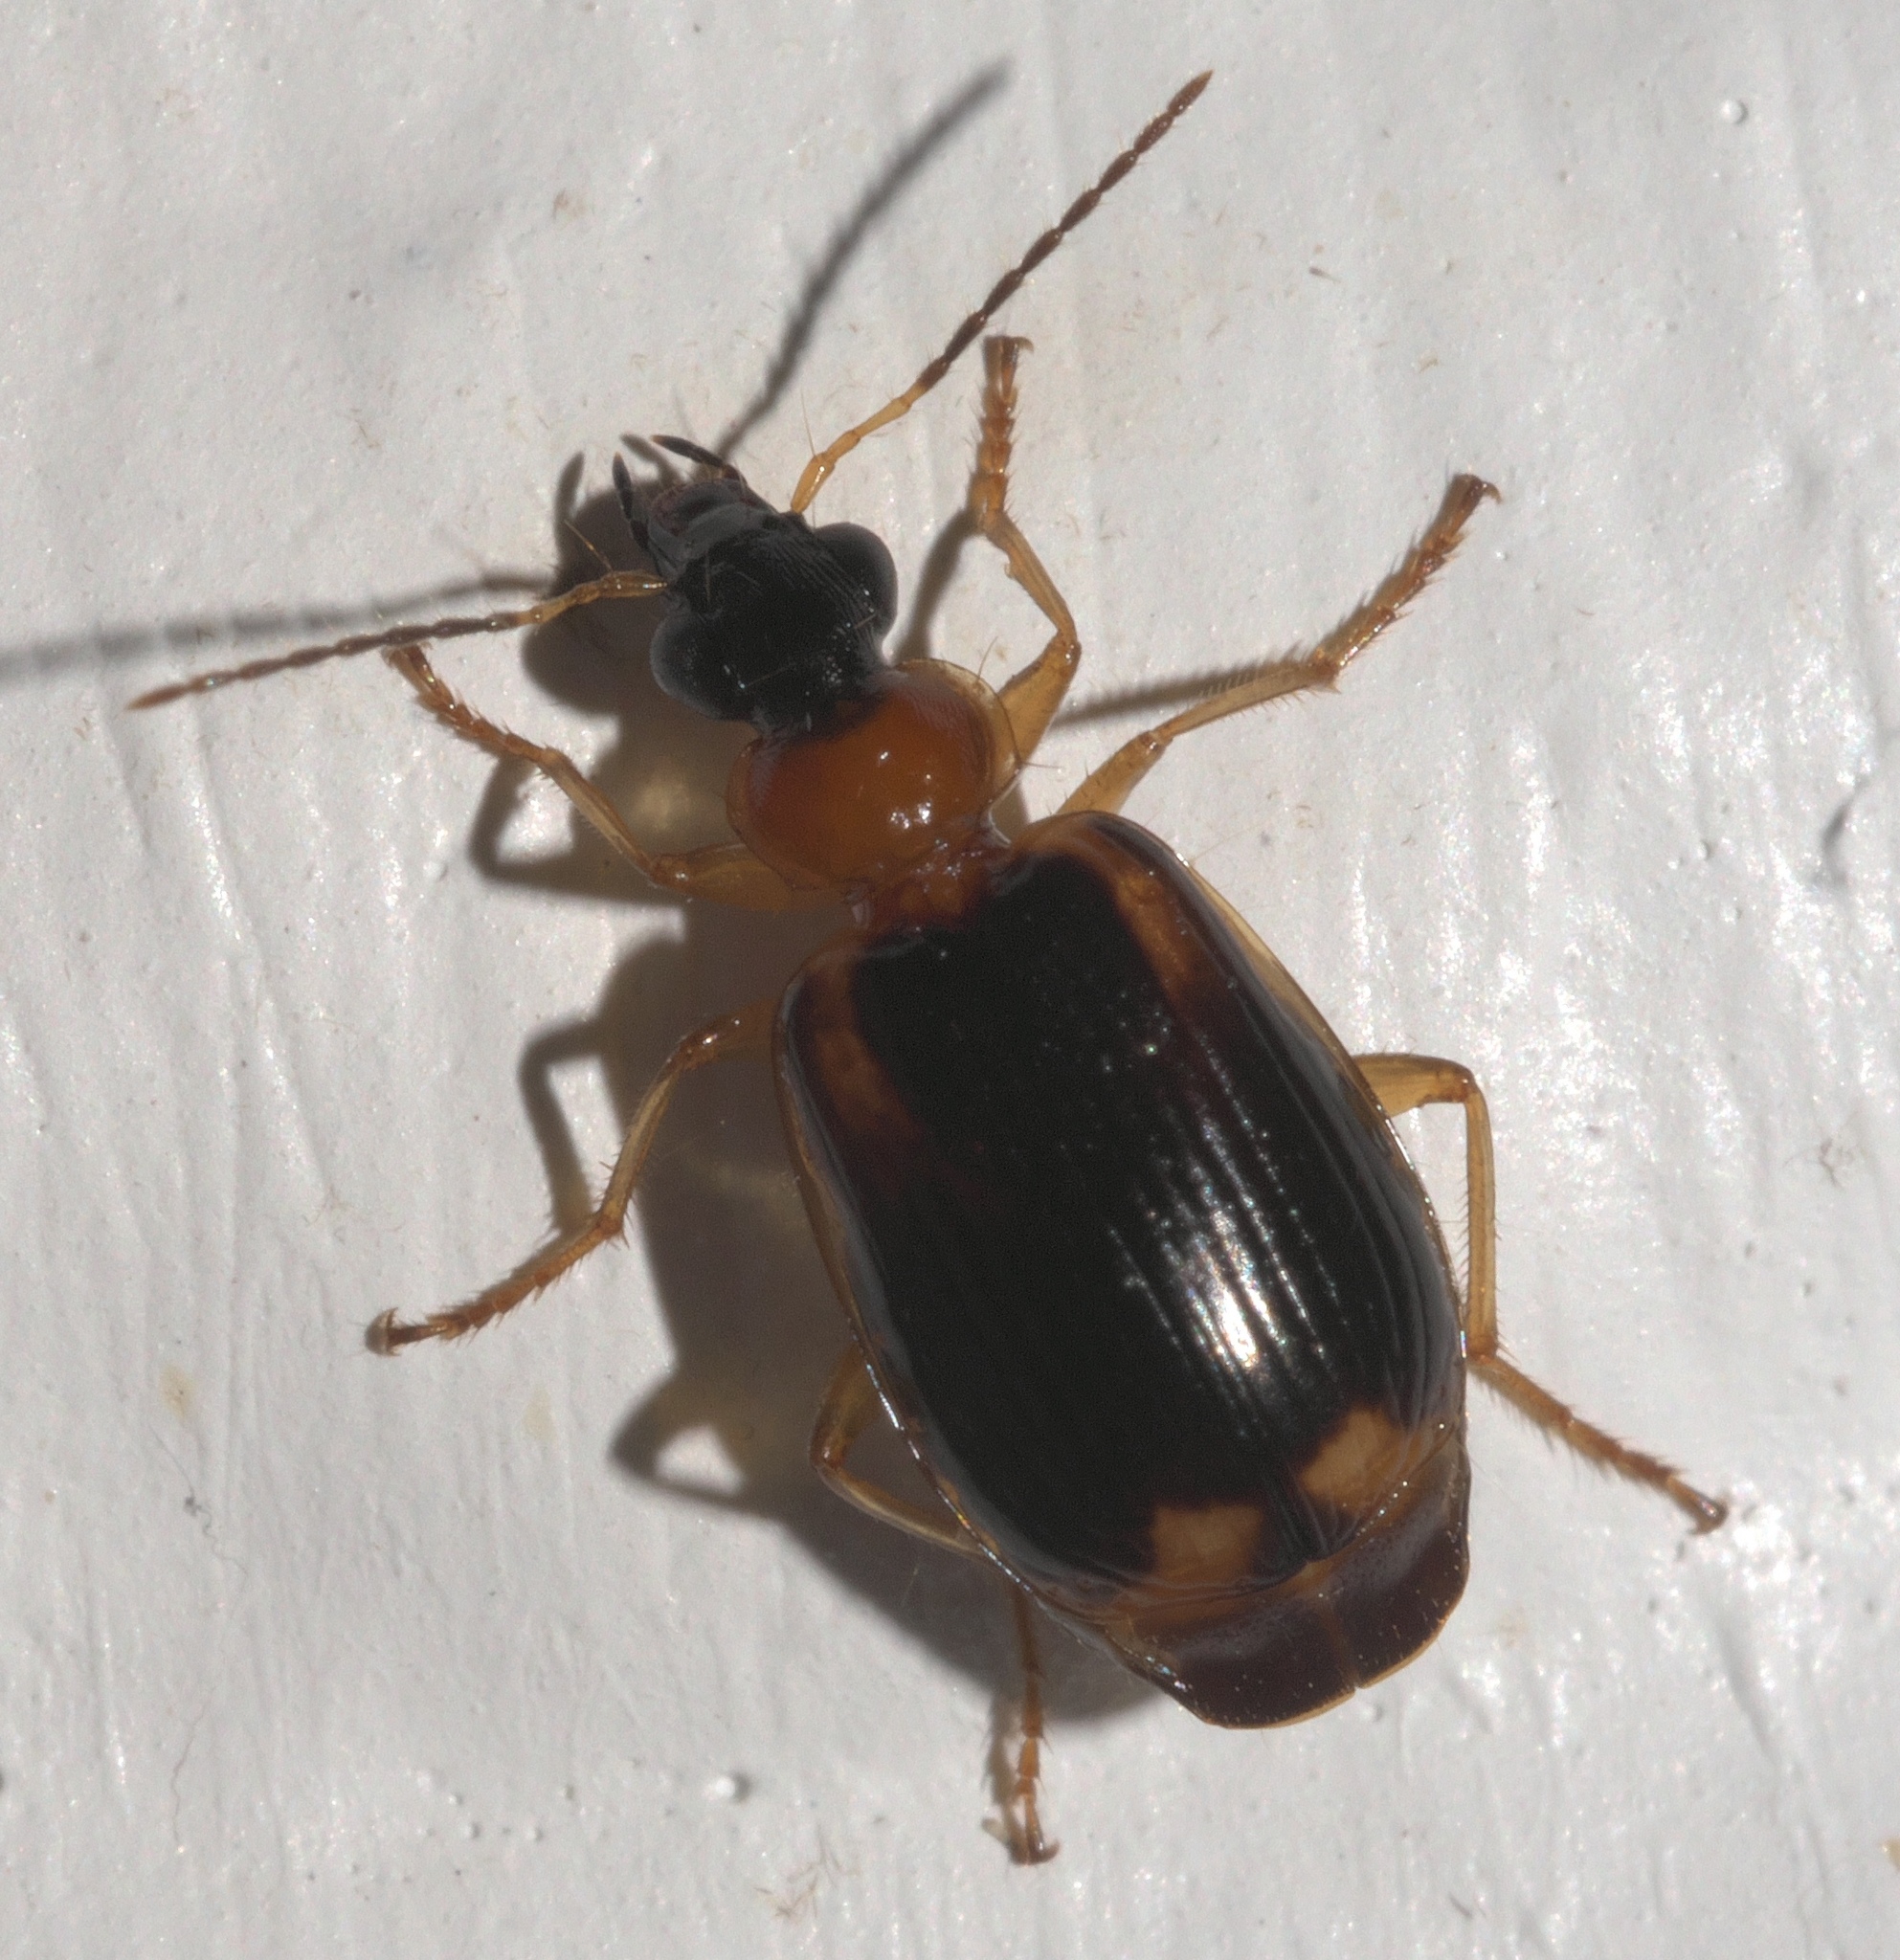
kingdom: Animalia
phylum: Arthropoda
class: Insecta
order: Coleoptera
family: Carabidae
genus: Lebia
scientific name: Lebia analis
